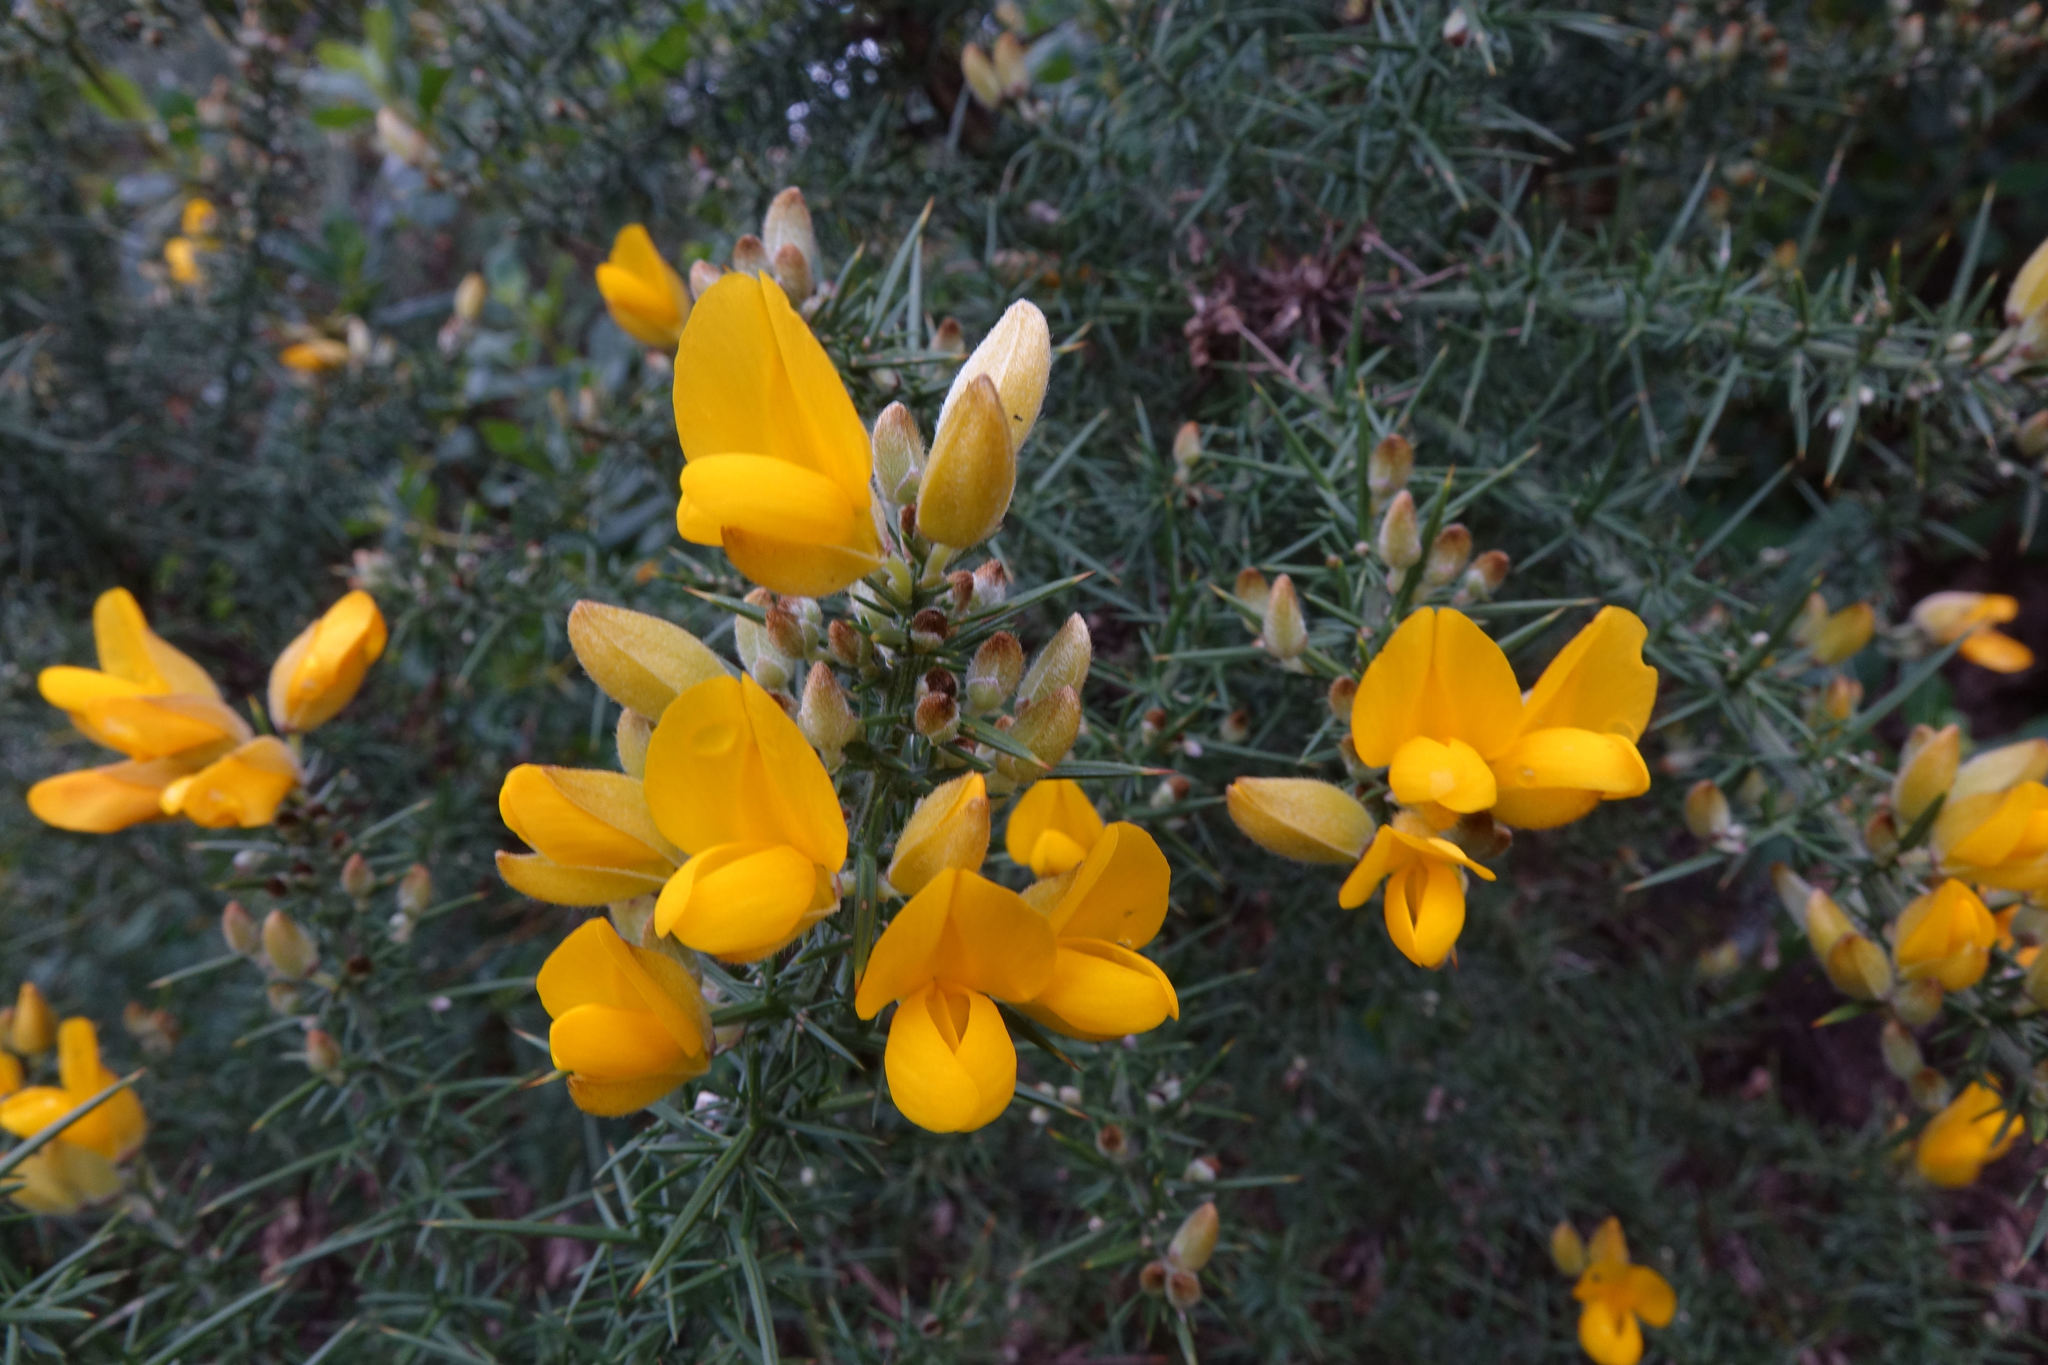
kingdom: Plantae
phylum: Tracheophyta
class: Magnoliopsida
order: Fabales
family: Fabaceae
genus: Ulex
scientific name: Ulex europaeus
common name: Common gorse
